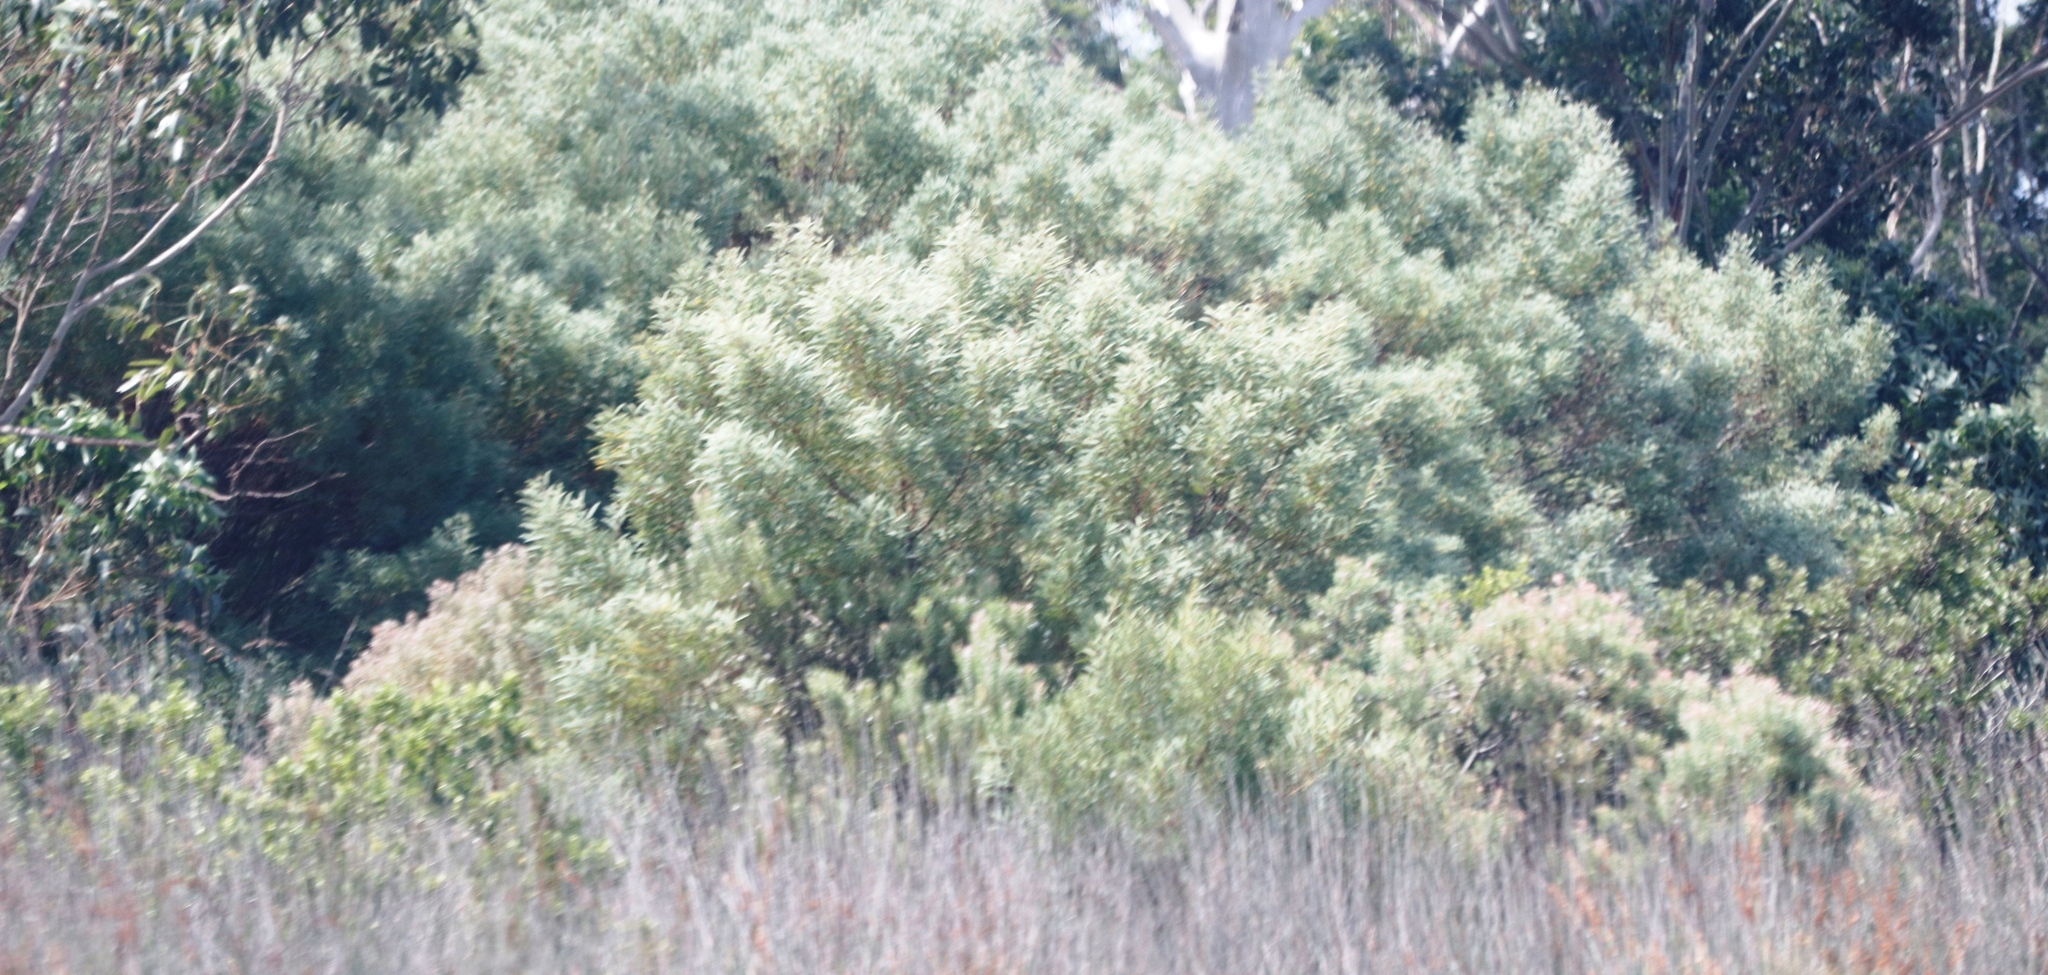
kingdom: Plantae
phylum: Tracheophyta
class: Magnoliopsida
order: Fabales
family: Fabaceae
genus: Acacia
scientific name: Acacia cyclops
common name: Coastal wattle
